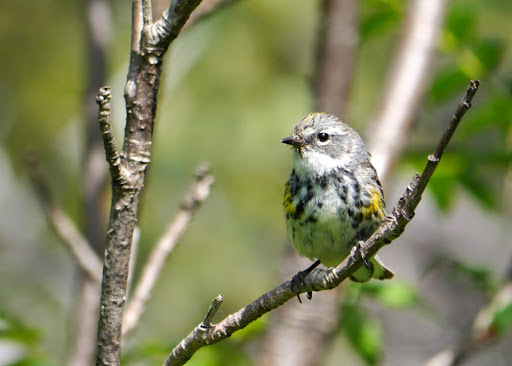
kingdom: Animalia
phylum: Chordata
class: Aves
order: Passeriformes
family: Parulidae
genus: Setophaga
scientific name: Setophaga coronata
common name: Myrtle warbler
